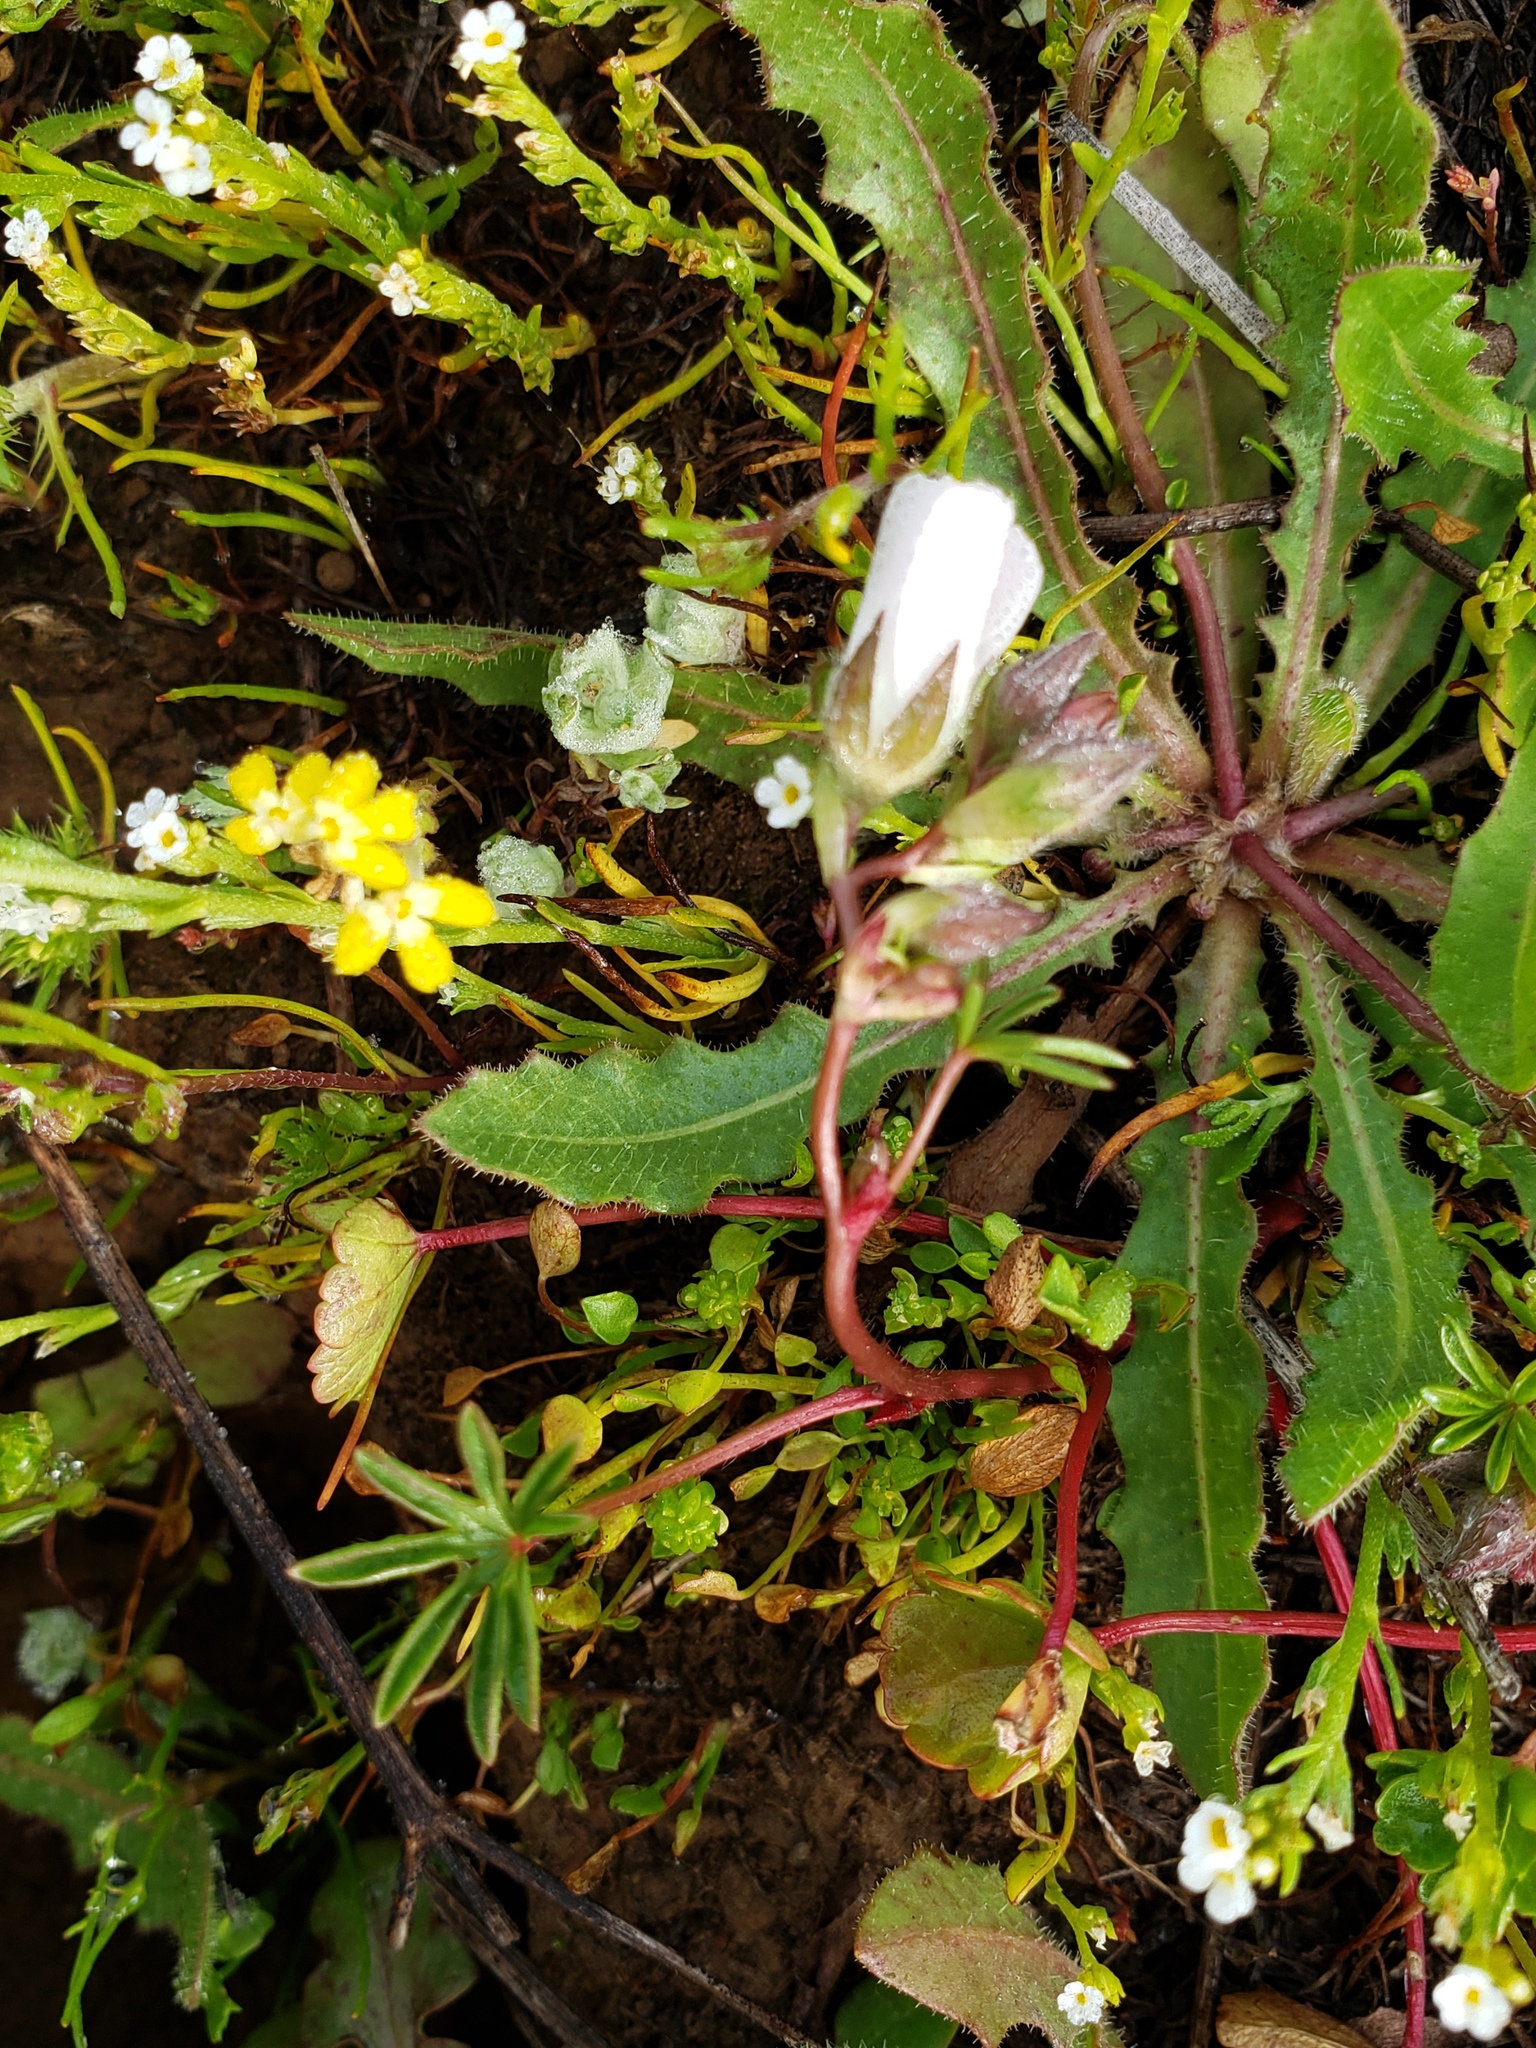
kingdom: Plantae
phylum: Tracheophyta
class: Magnoliopsida
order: Malvales
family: Malvaceae
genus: Sidalcea
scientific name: Sidalcea calycosa
